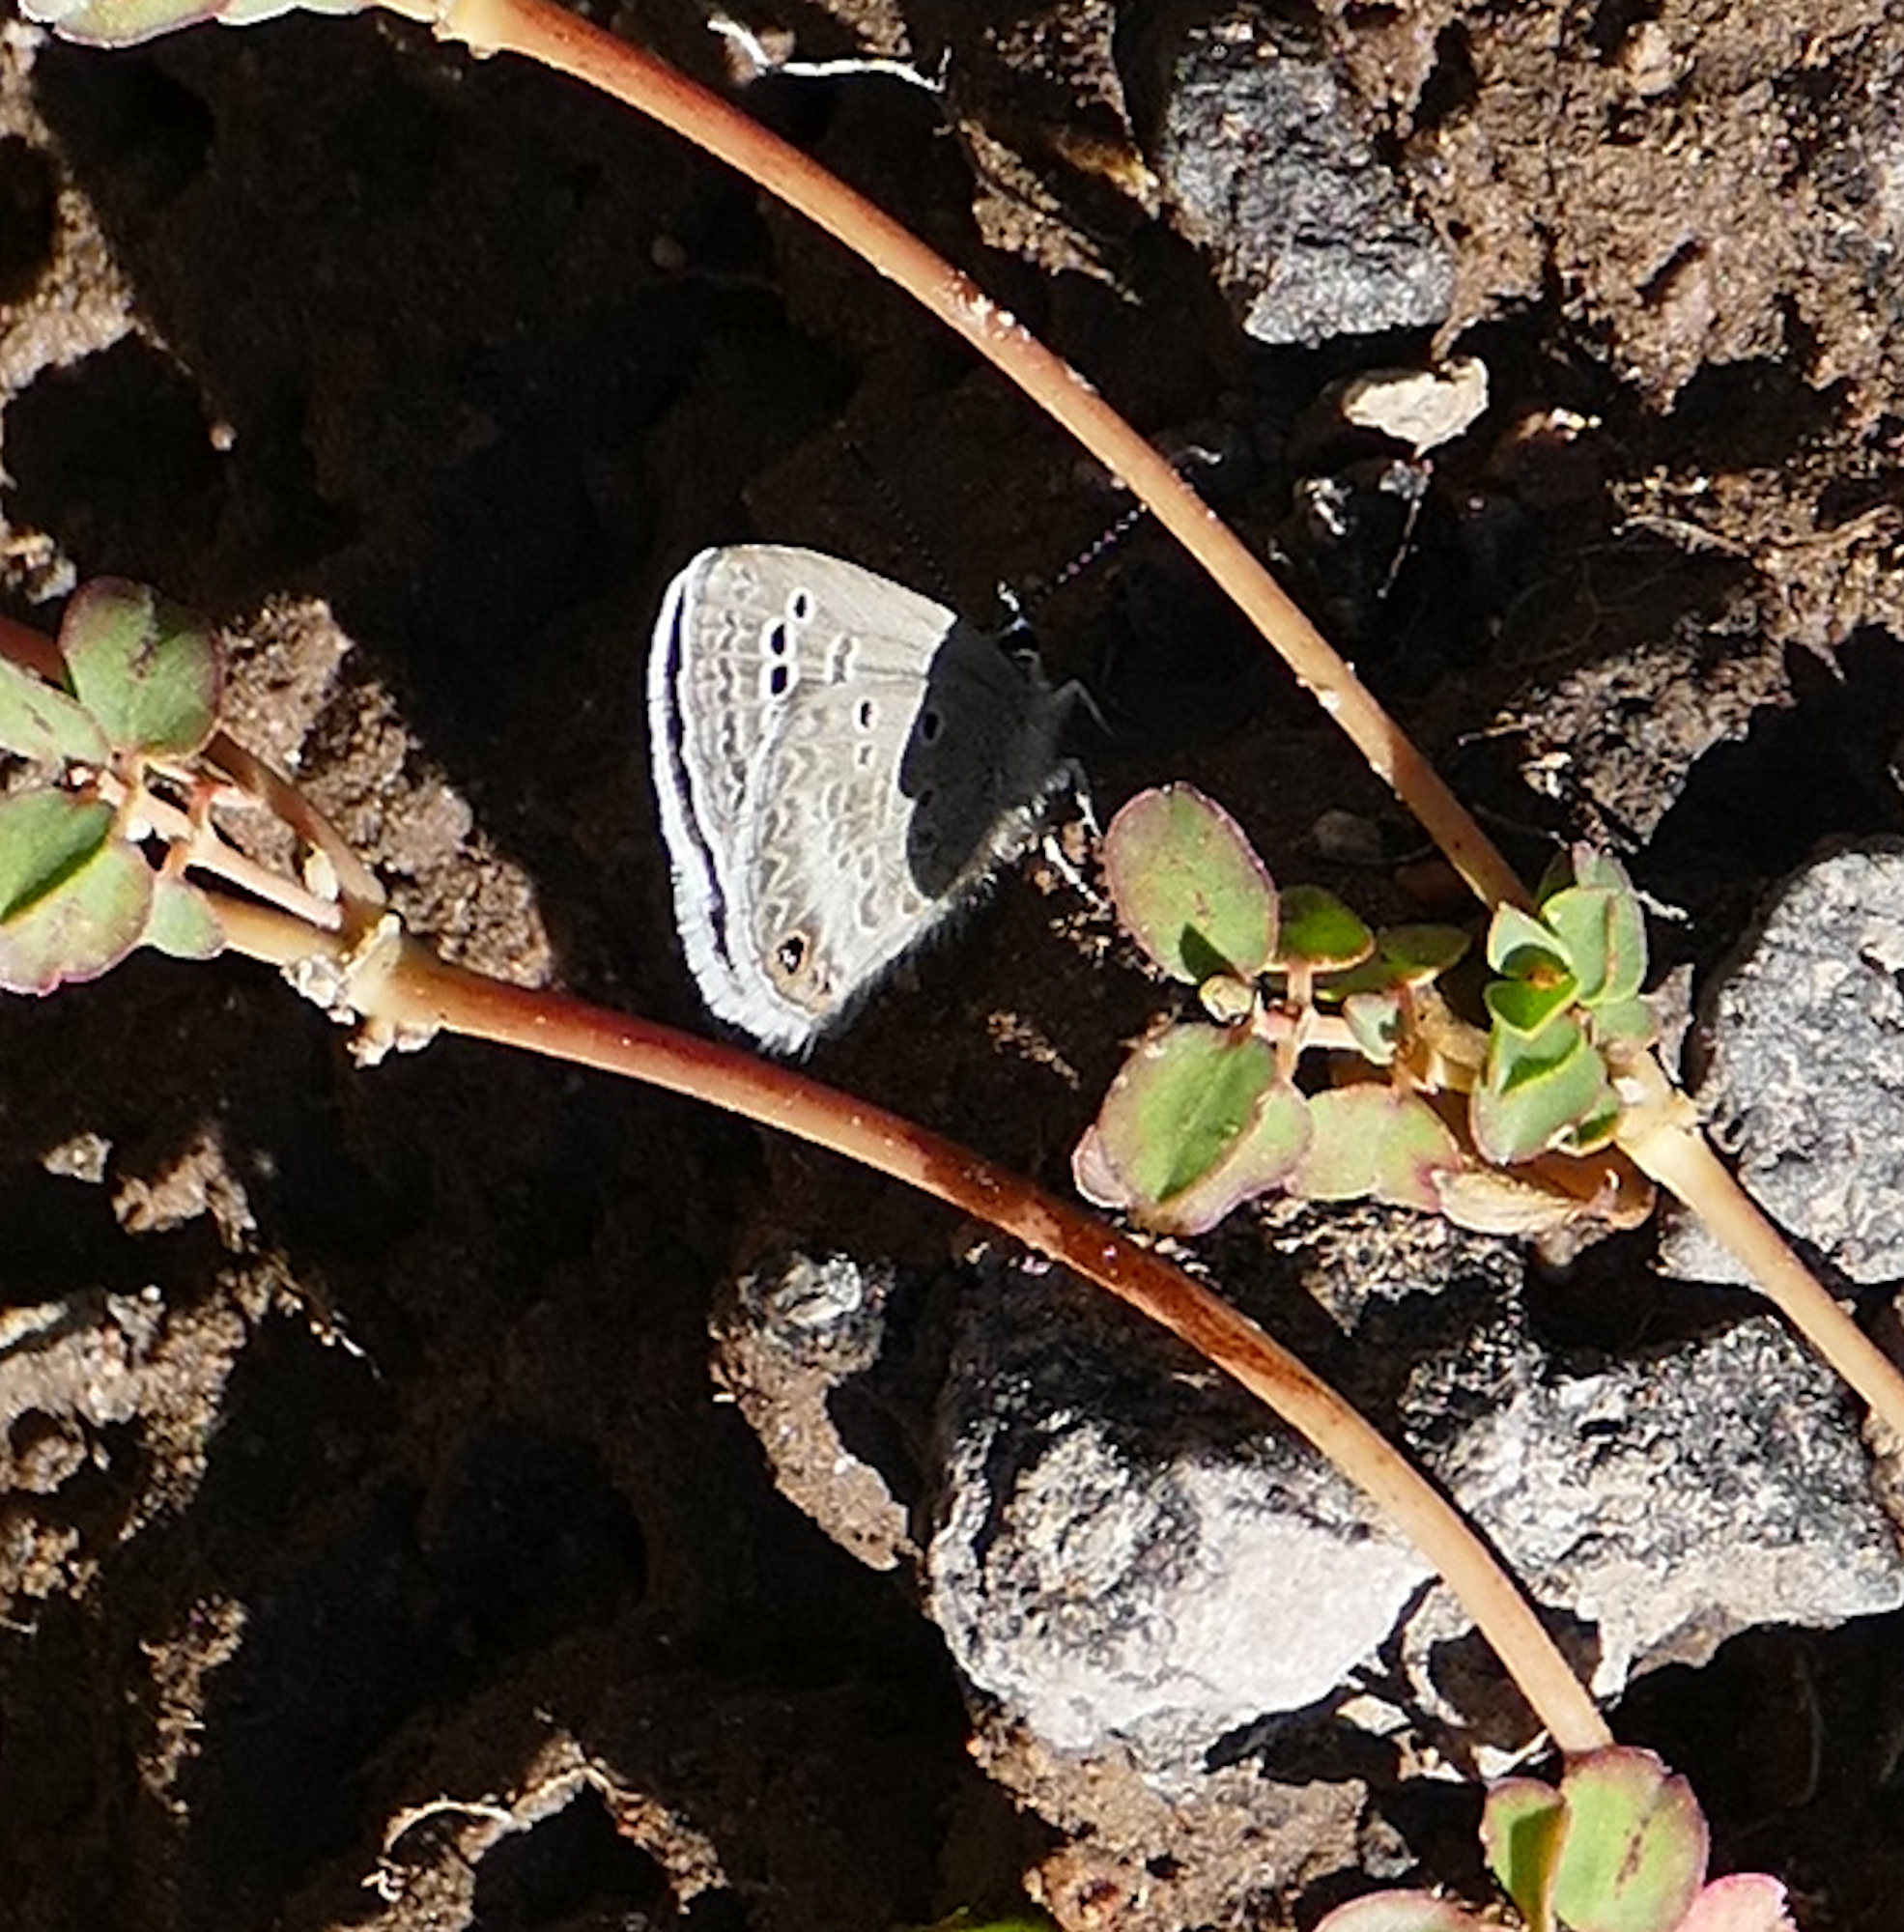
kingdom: Animalia
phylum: Arthropoda
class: Insecta
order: Lepidoptera
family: Lycaenidae
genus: Echinargus
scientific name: Echinargus isola
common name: Reakirt's blue
